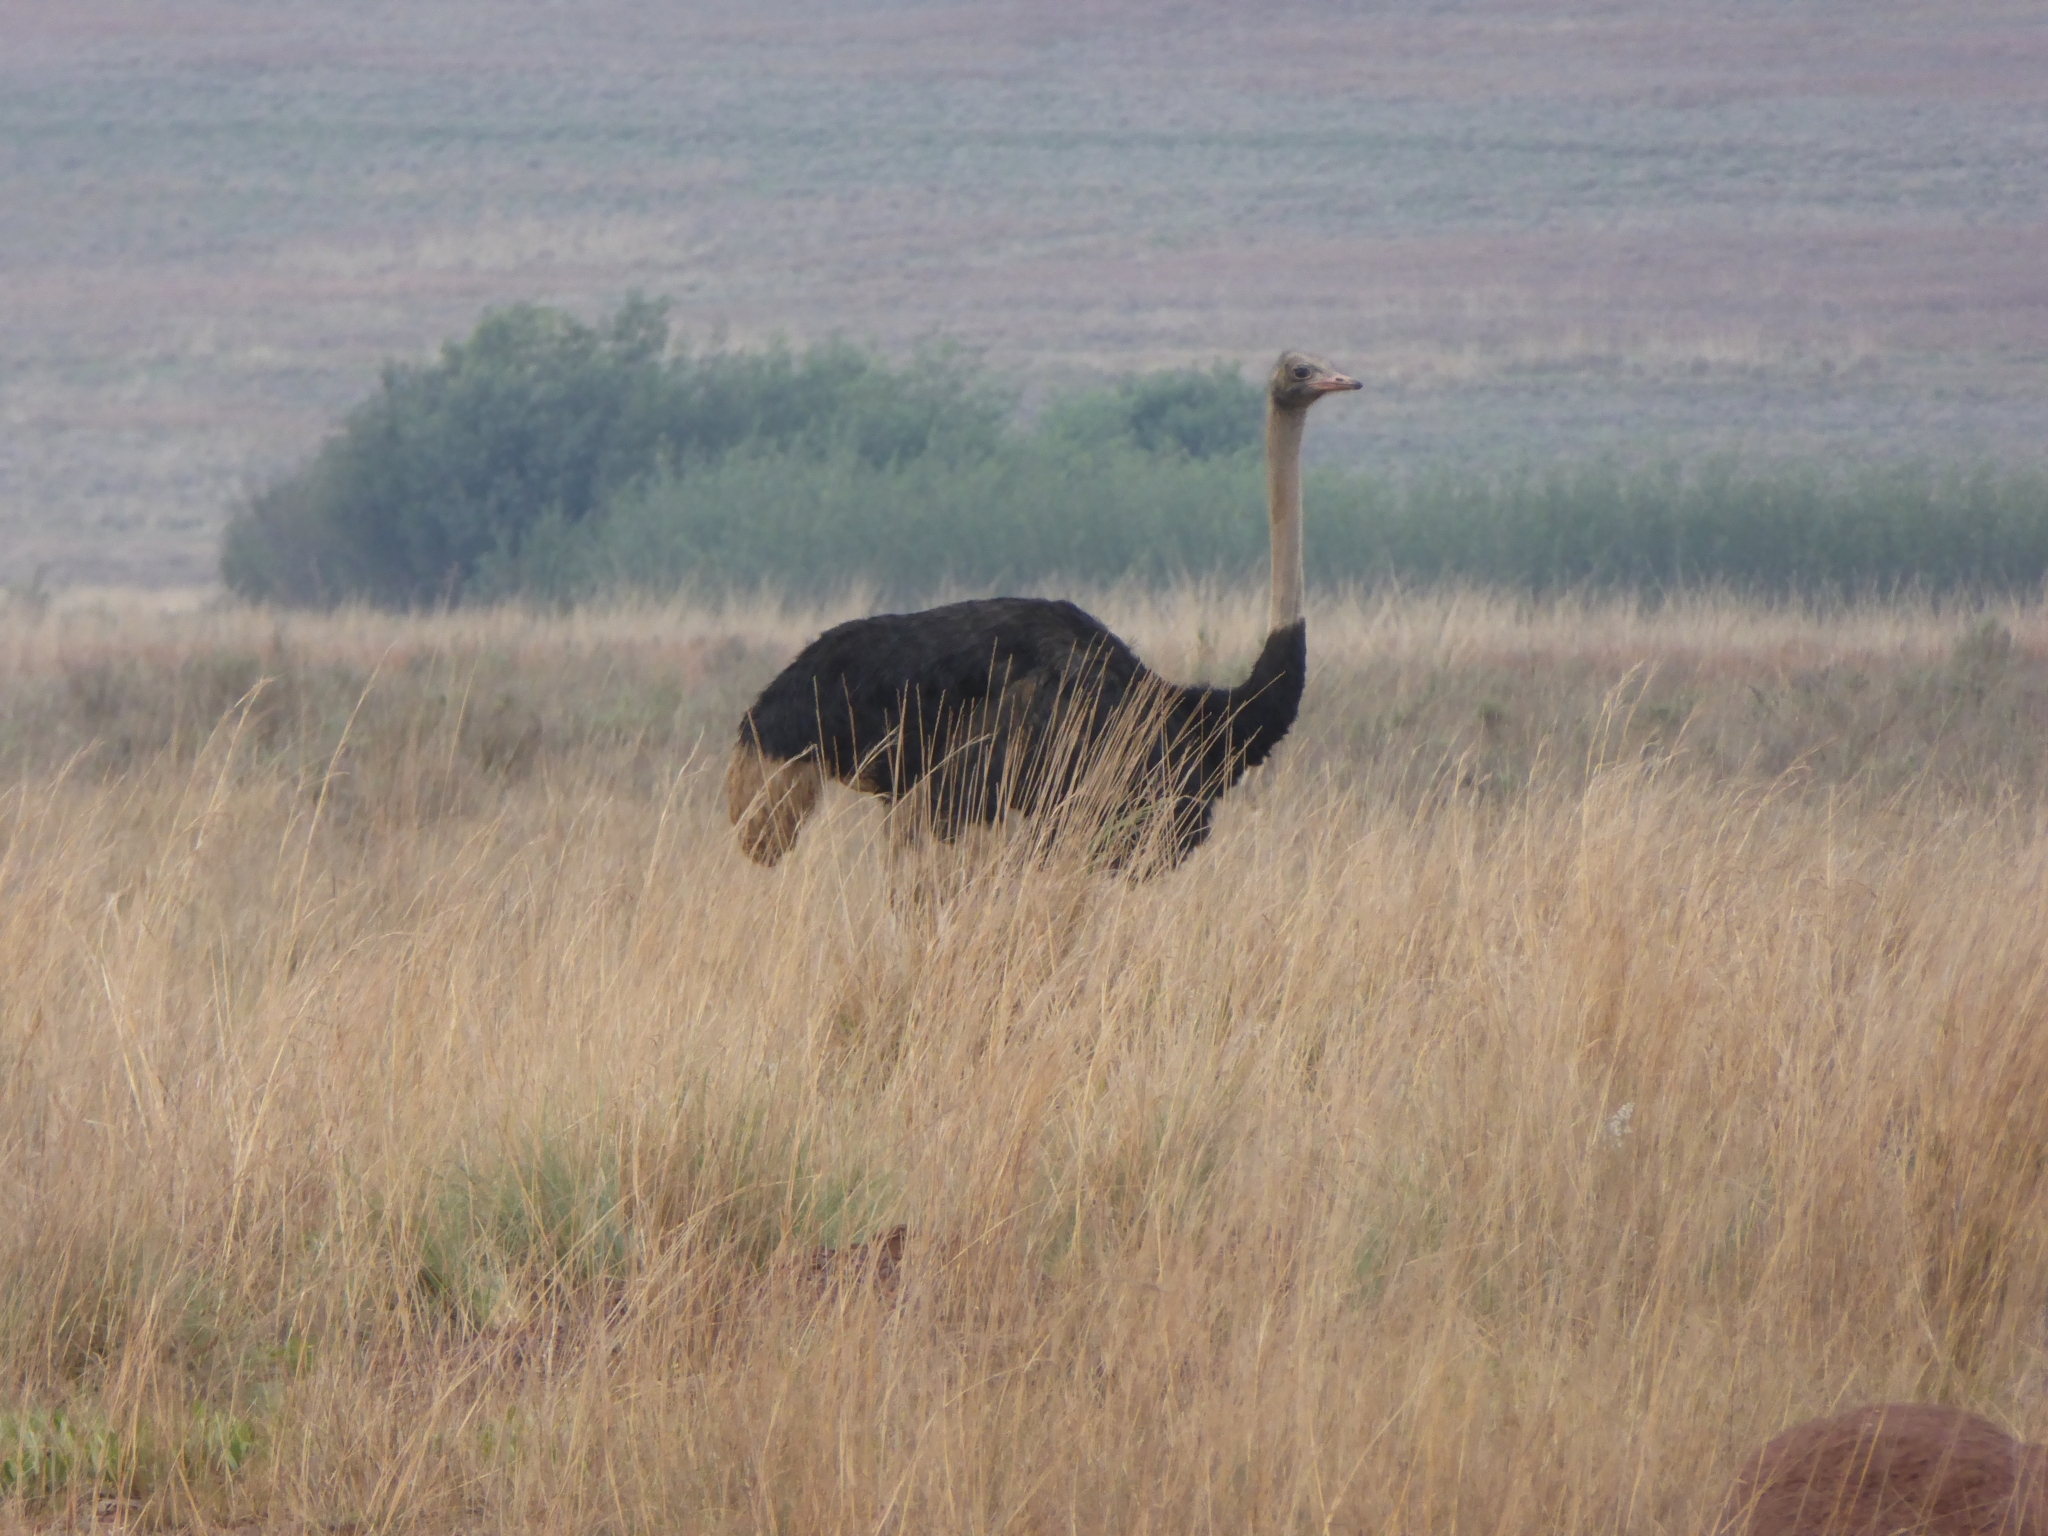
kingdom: Animalia
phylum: Chordata
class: Aves
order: Struthioniformes
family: Struthionidae
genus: Struthio
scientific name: Struthio camelus
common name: Common ostrich
